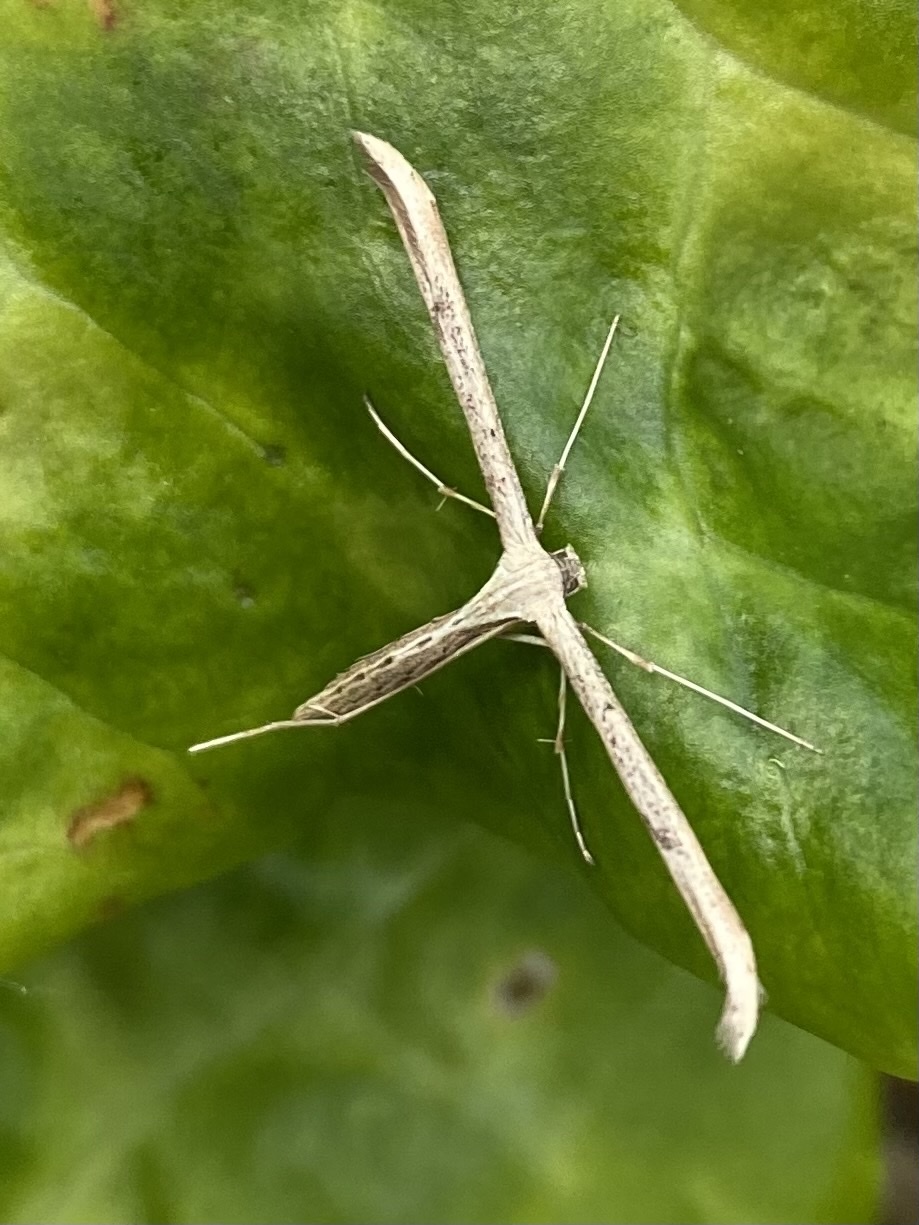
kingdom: Animalia
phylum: Arthropoda
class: Insecta
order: Lepidoptera
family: Pterophoridae
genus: Emmelina
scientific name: Emmelina monodactyla
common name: Common plume
